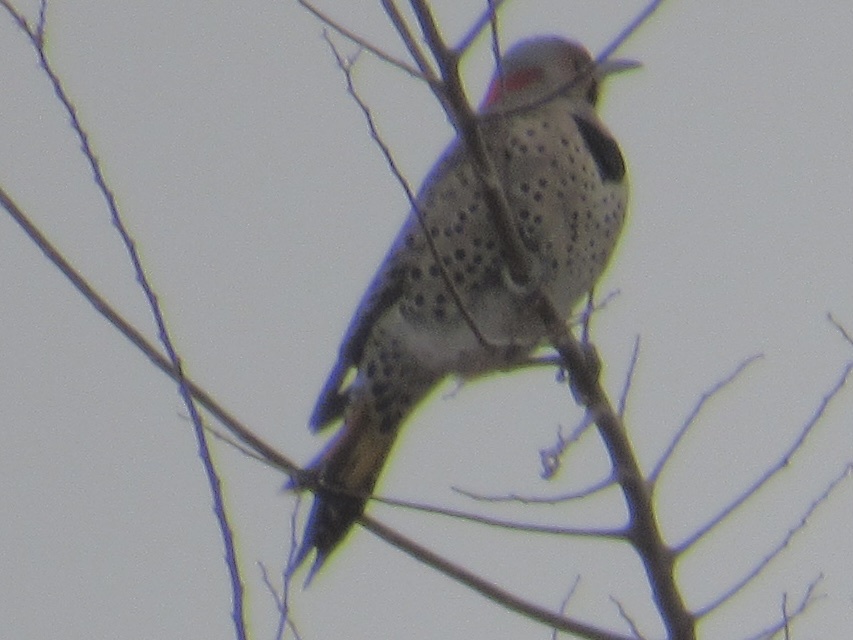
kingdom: Animalia
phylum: Chordata
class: Aves
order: Piciformes
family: Picidae
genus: Colaptes
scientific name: Colaptes auratus
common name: Northern flicker
